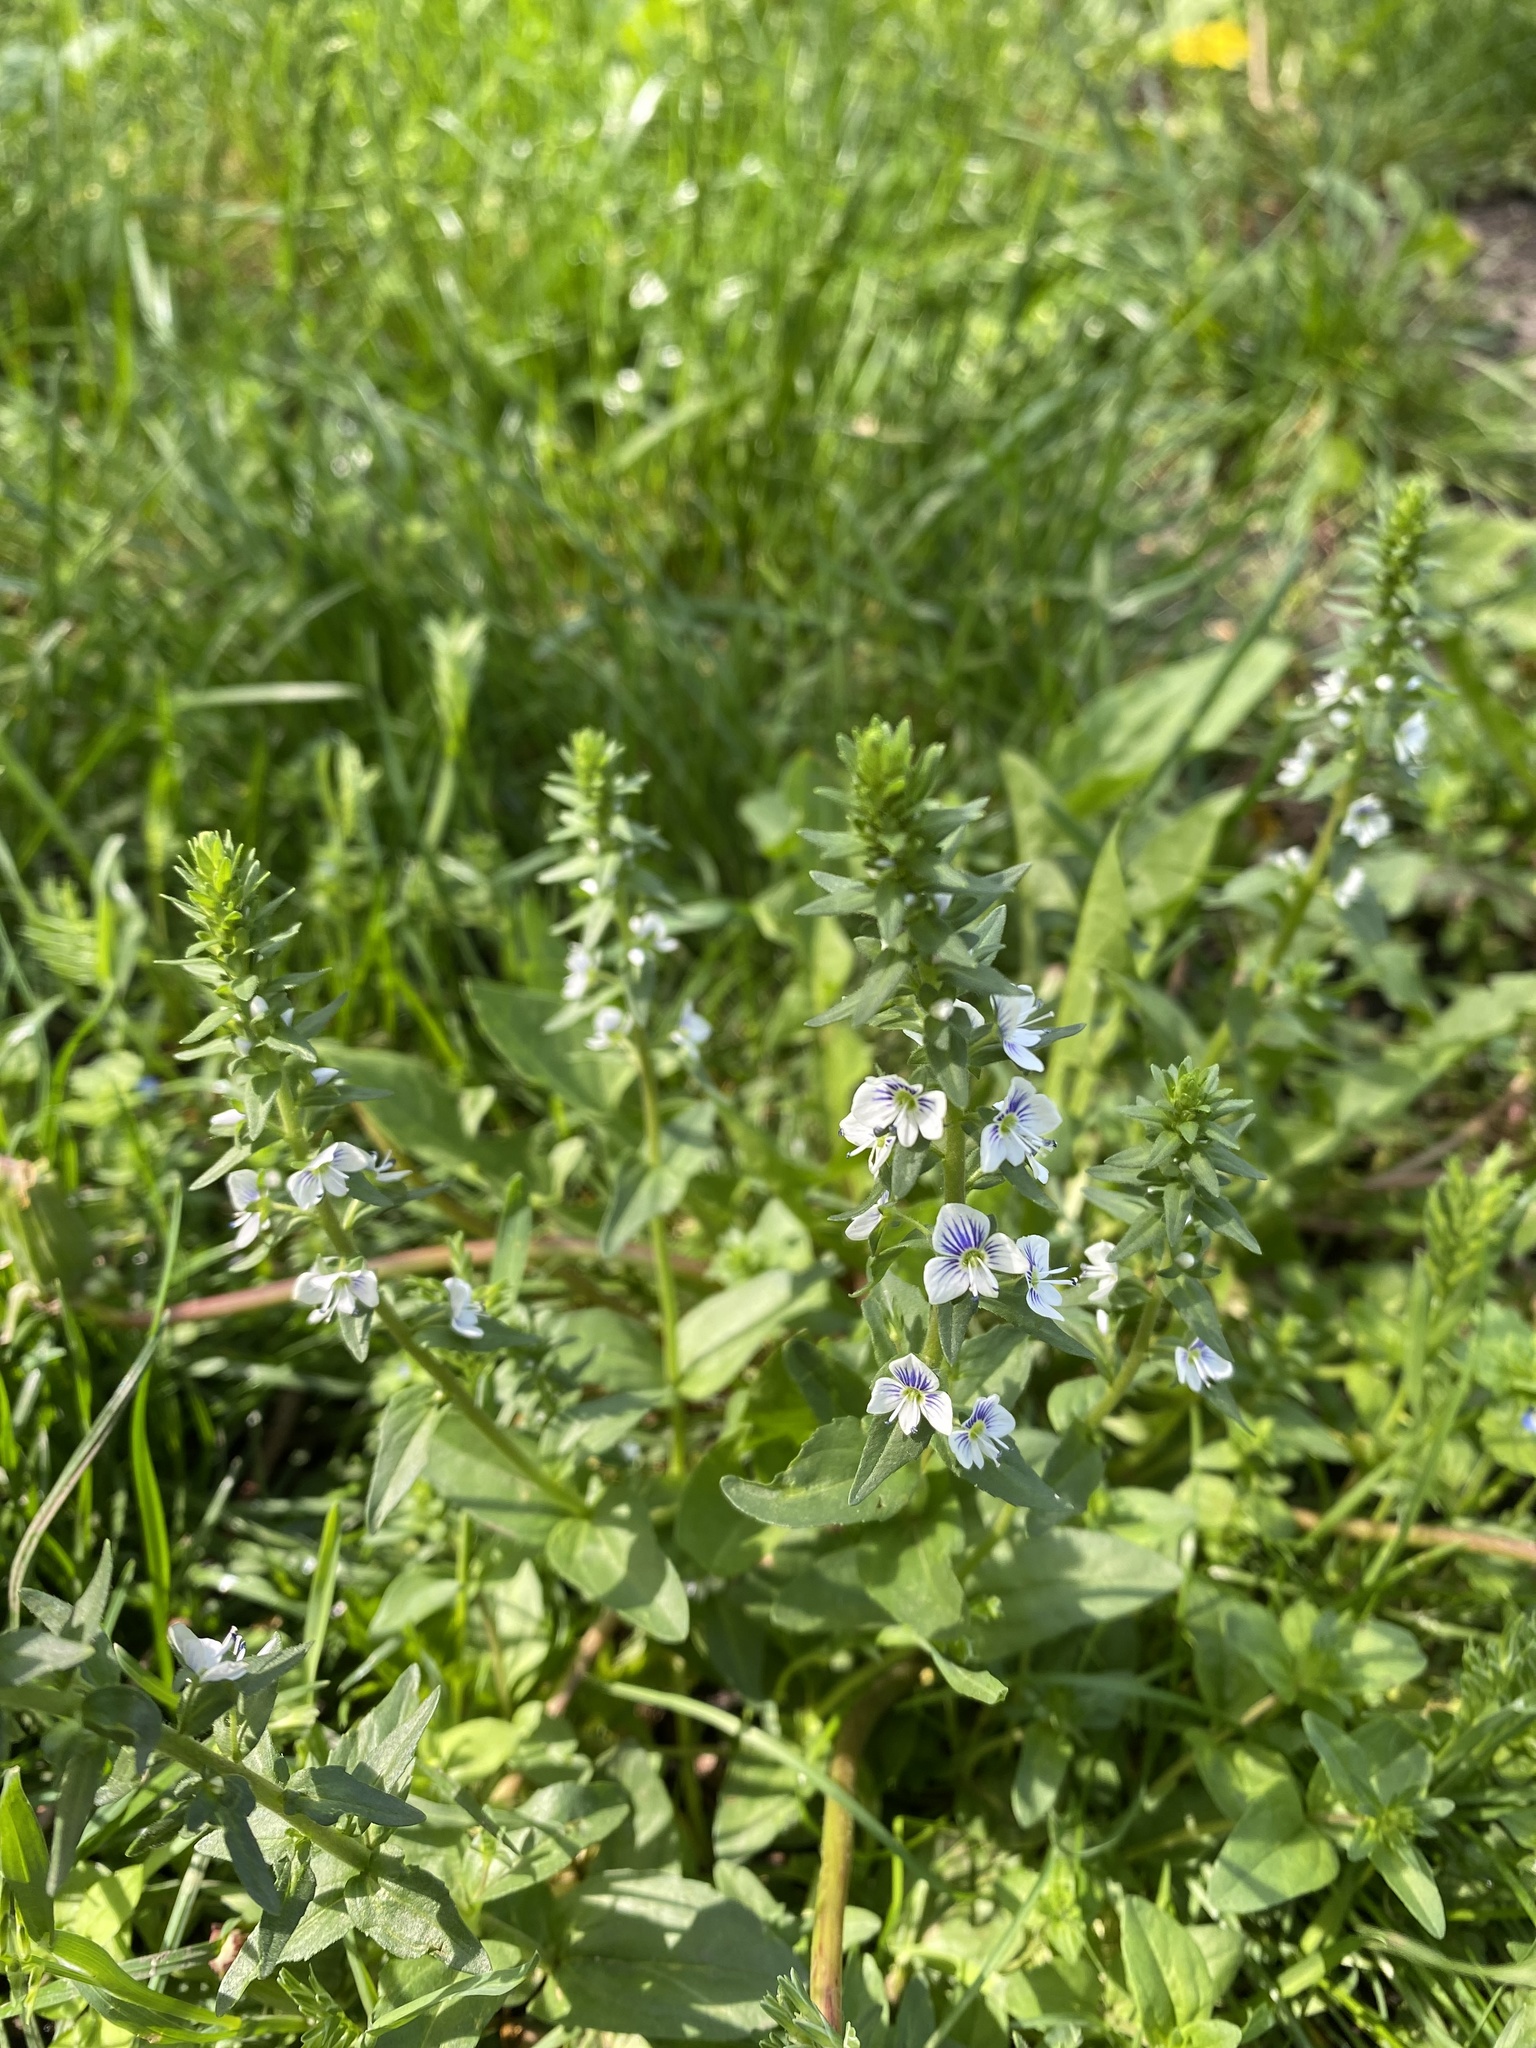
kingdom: Plantae
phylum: Tracheophyta
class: Magnoliopsida
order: Lamiales
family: Plantaginaceae
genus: Veronica
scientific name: Veronica serpyllifolia
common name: Thyme-leaved speedwell
